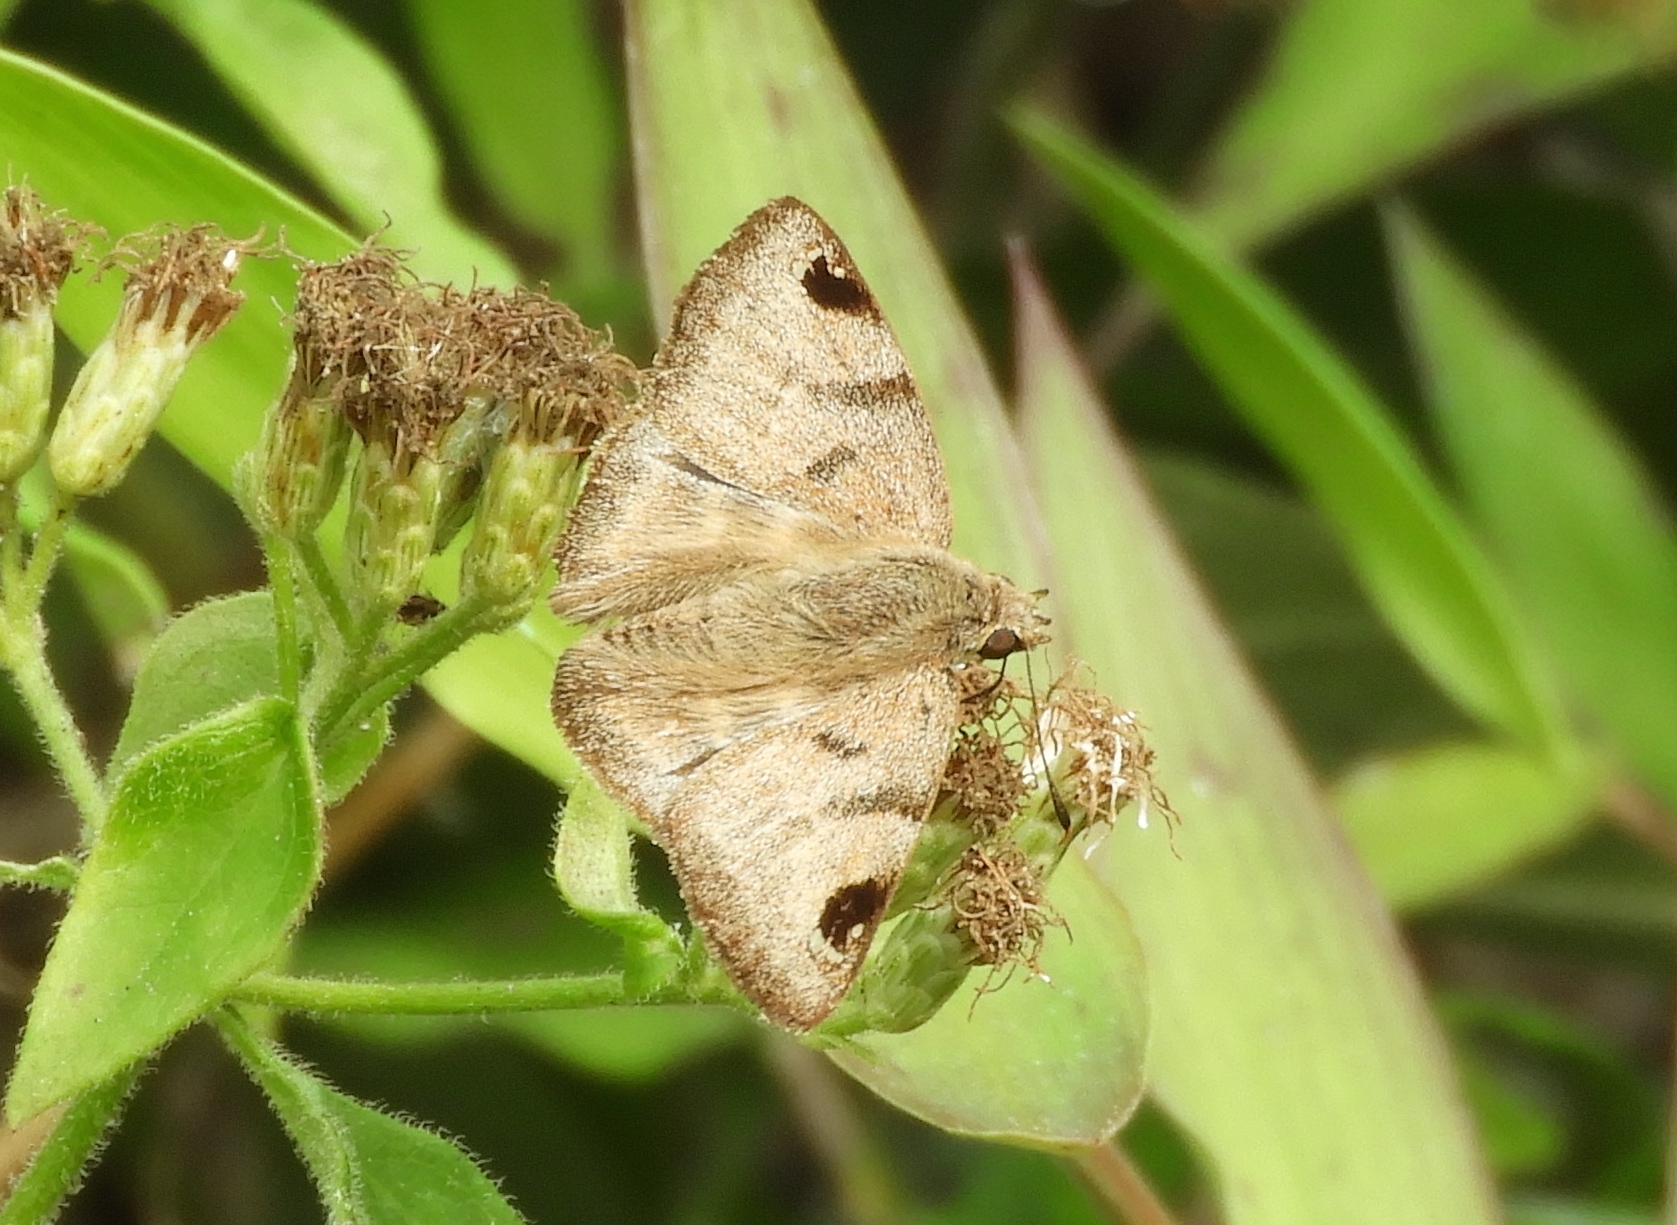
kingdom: Animalia
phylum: Arthropoda
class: Insecta
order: Lepidoptera
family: Hesperiidae
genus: Arteurotia
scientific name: Arteurotia tractipennis
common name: Starred skipper
